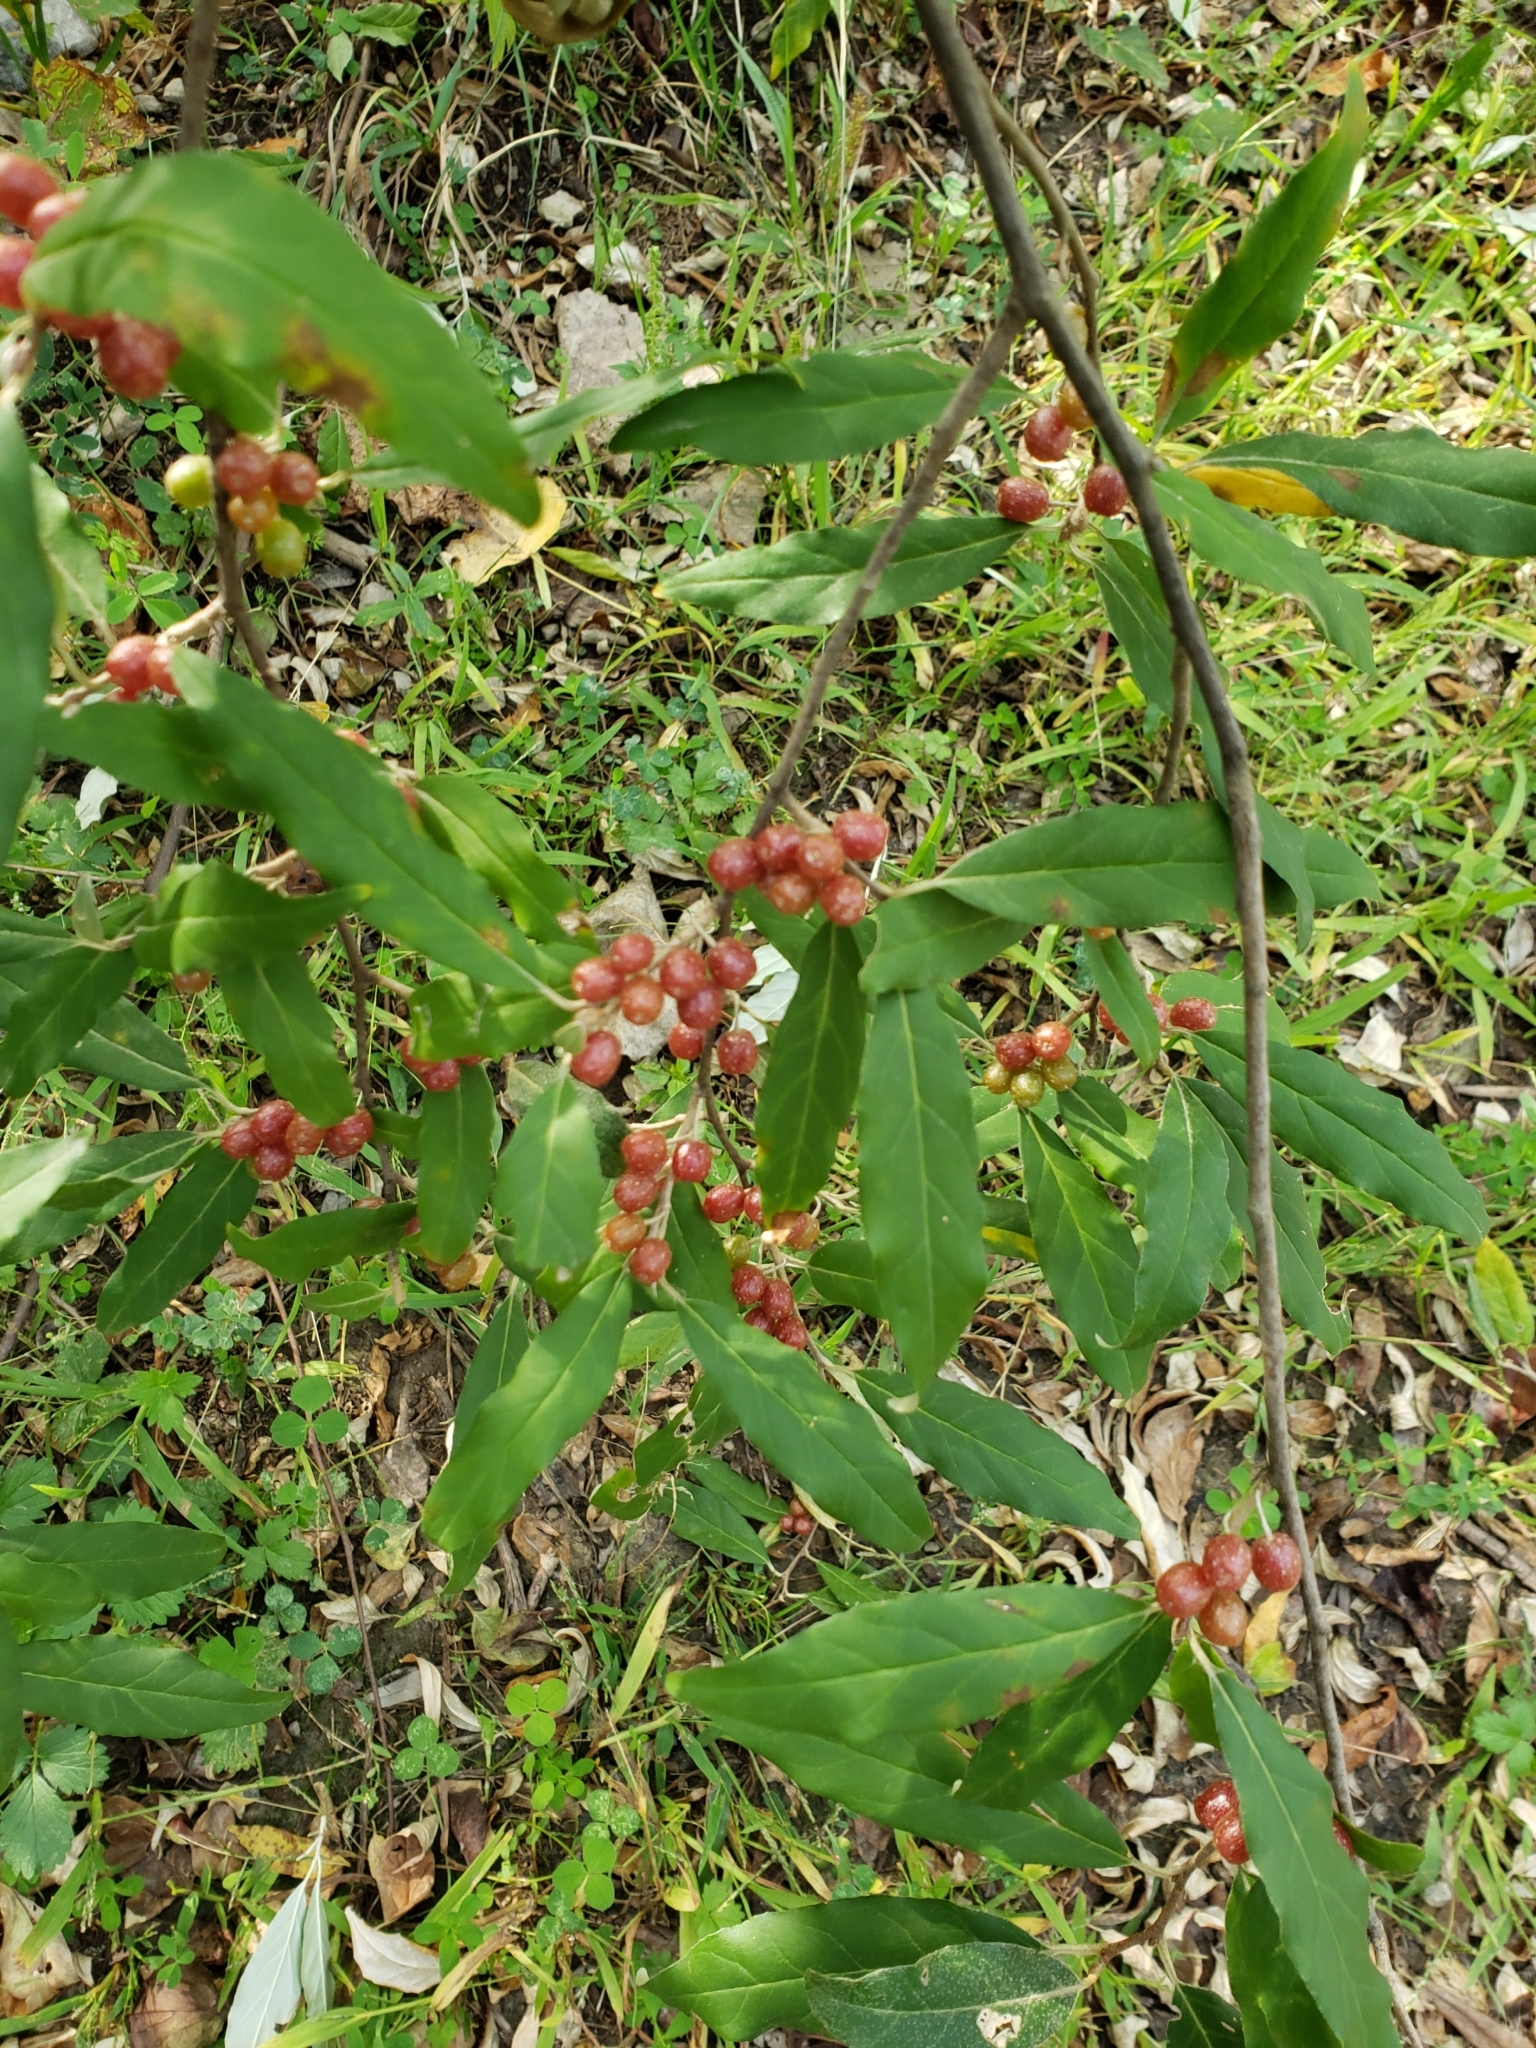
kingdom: Plantae
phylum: Tracheophyta
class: Magnoliopsida
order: Rosales
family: Elaeagnaceae
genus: Elaeagnus
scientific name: Elaeagnus umbellata
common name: Autumn olive
